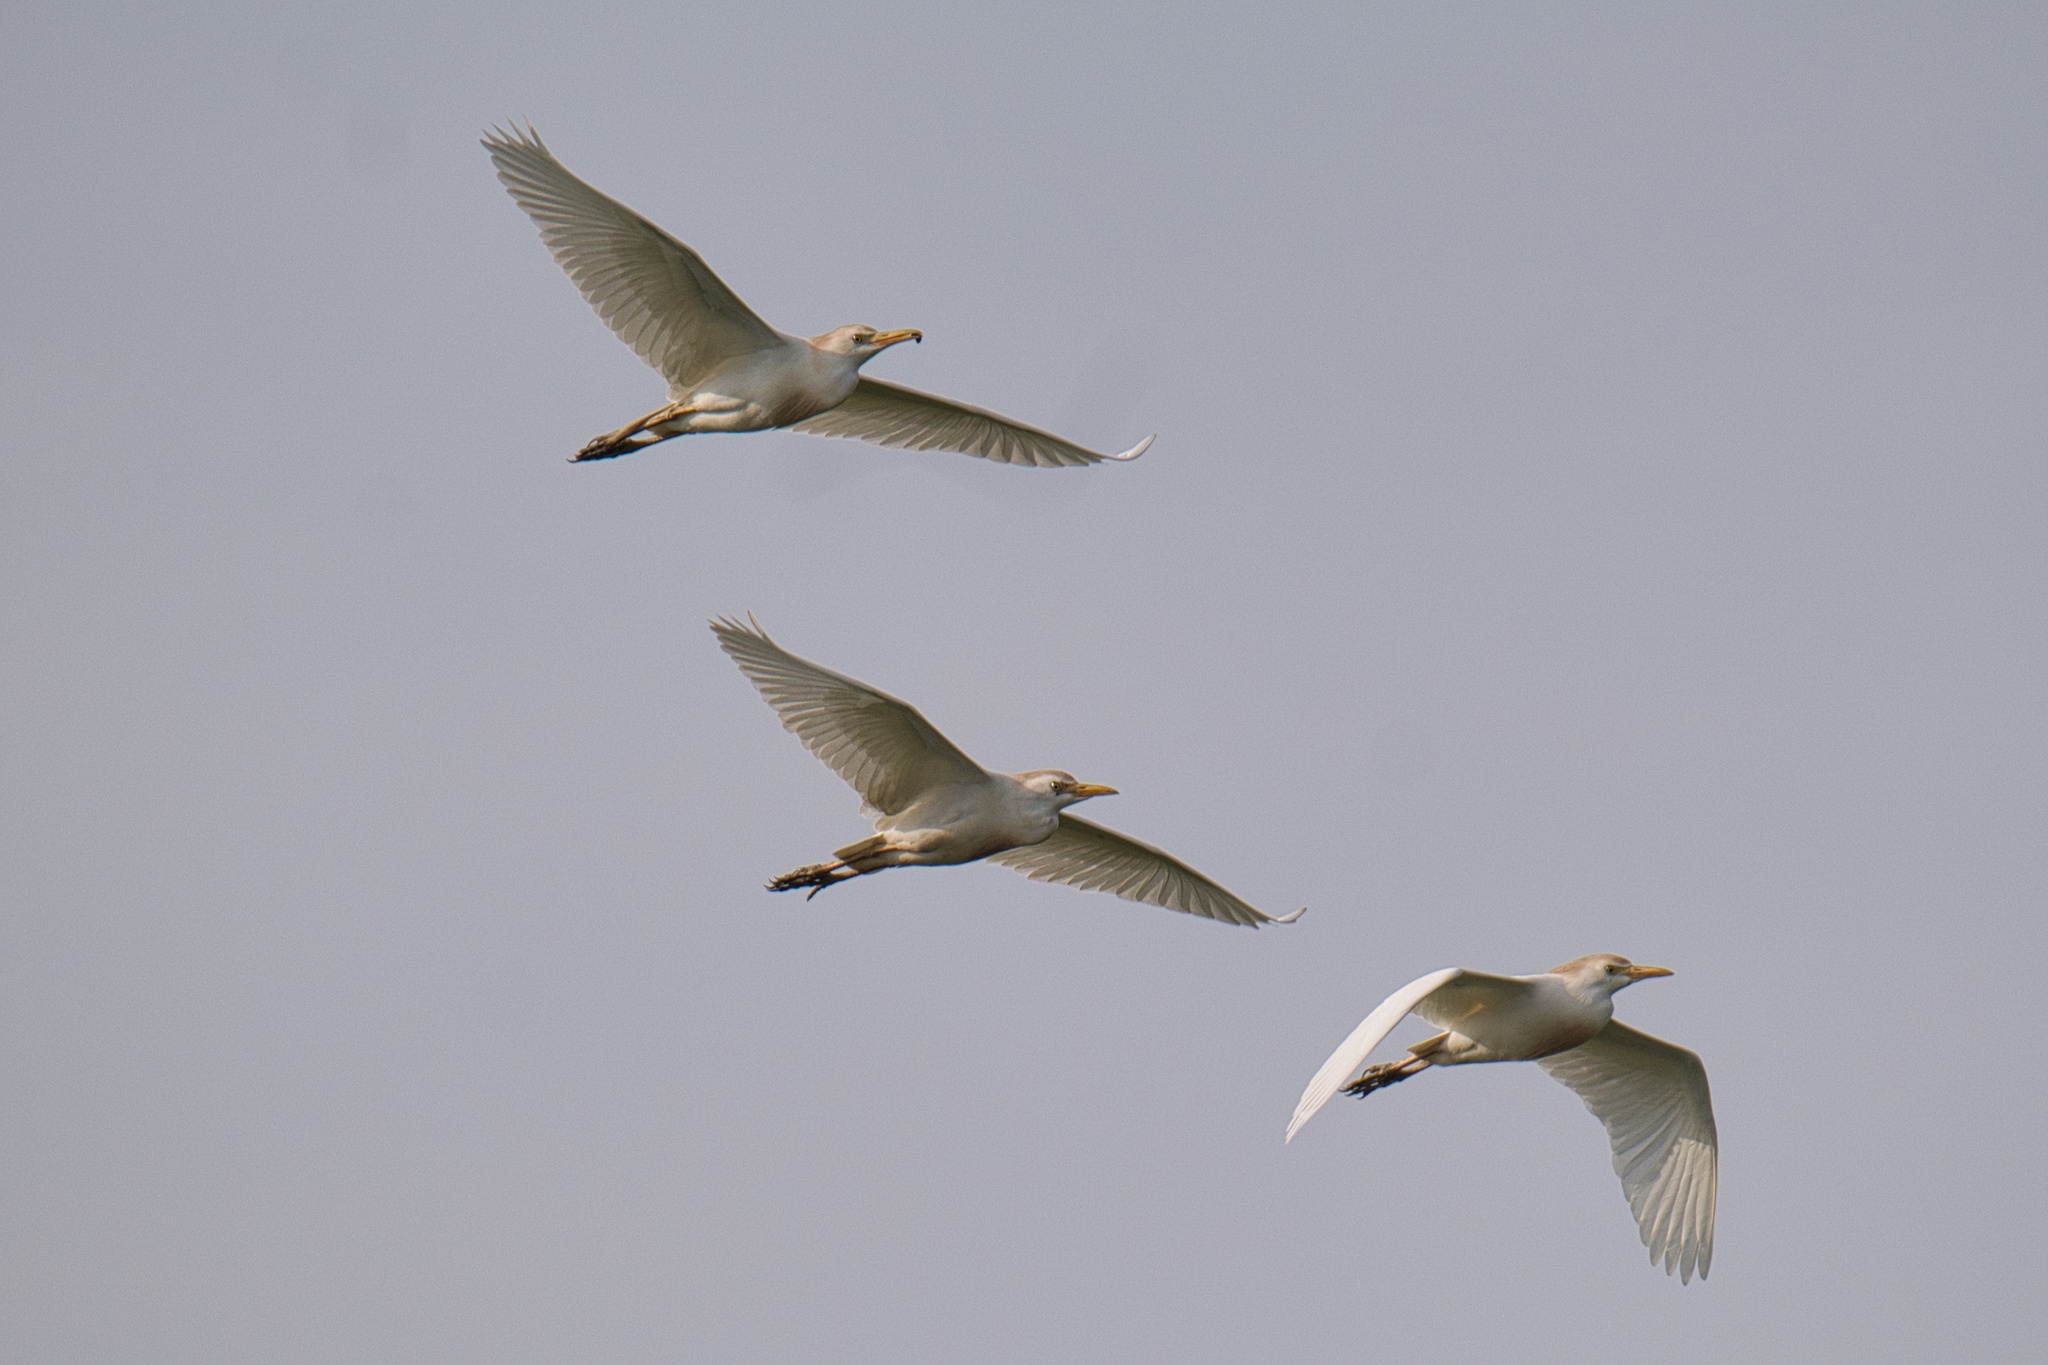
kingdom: Animalia
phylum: Chordata
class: Aves
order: Pelecaniformes
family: Ardeidae
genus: Bubulcus
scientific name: Bubulcus ibis
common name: Cattle egret
